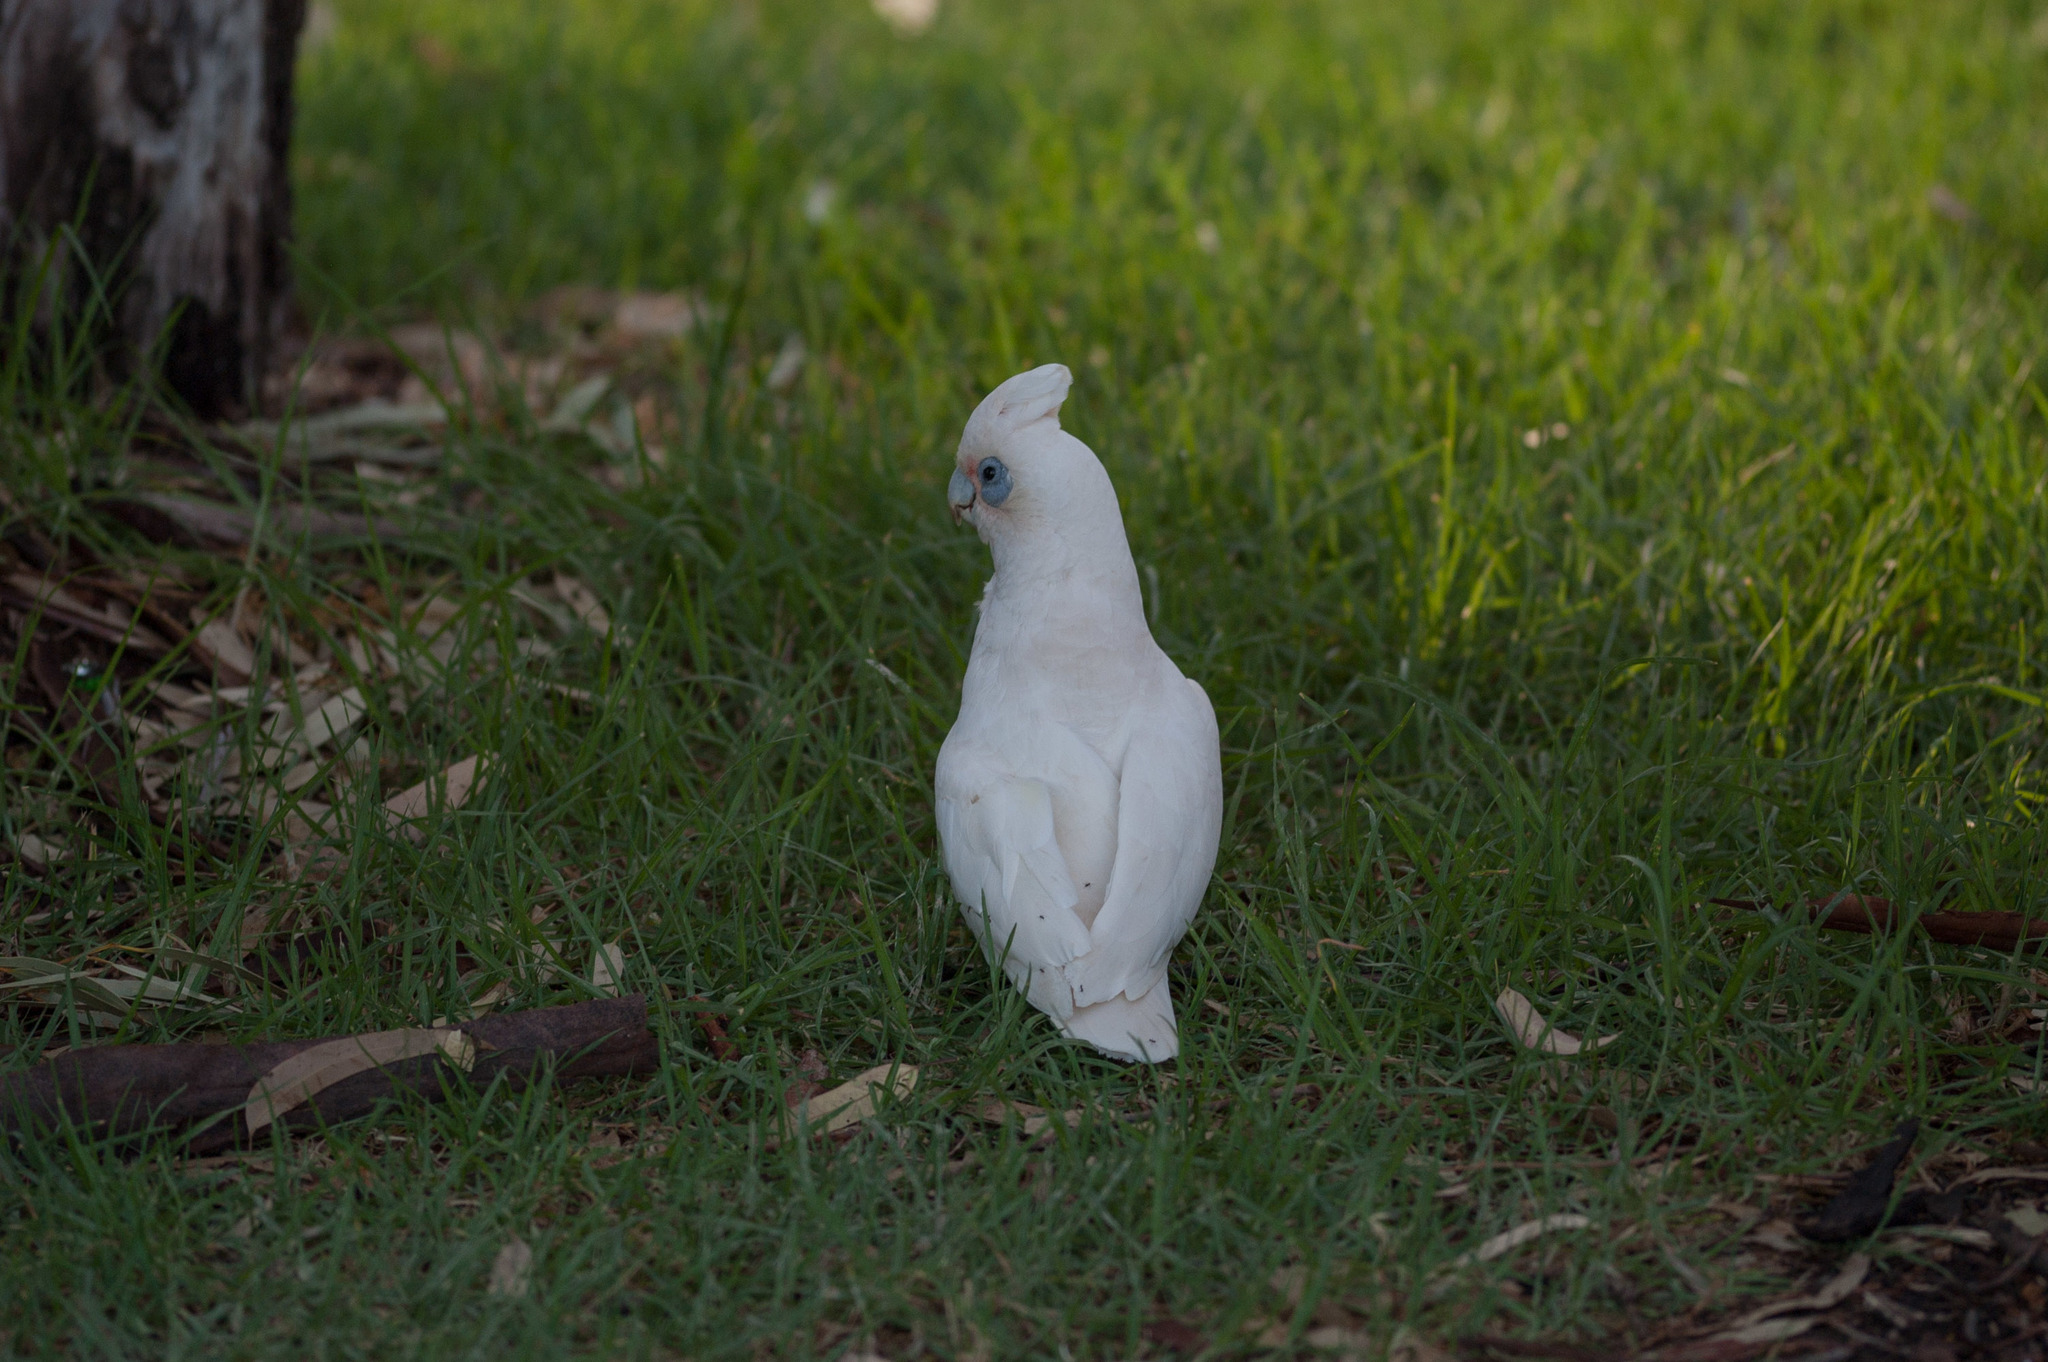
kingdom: Animalia
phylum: Chordata
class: Aves
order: Psittaciformes
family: Psittacidae
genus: Cacatua
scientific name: Cacatua sanguinea
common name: Little corella
